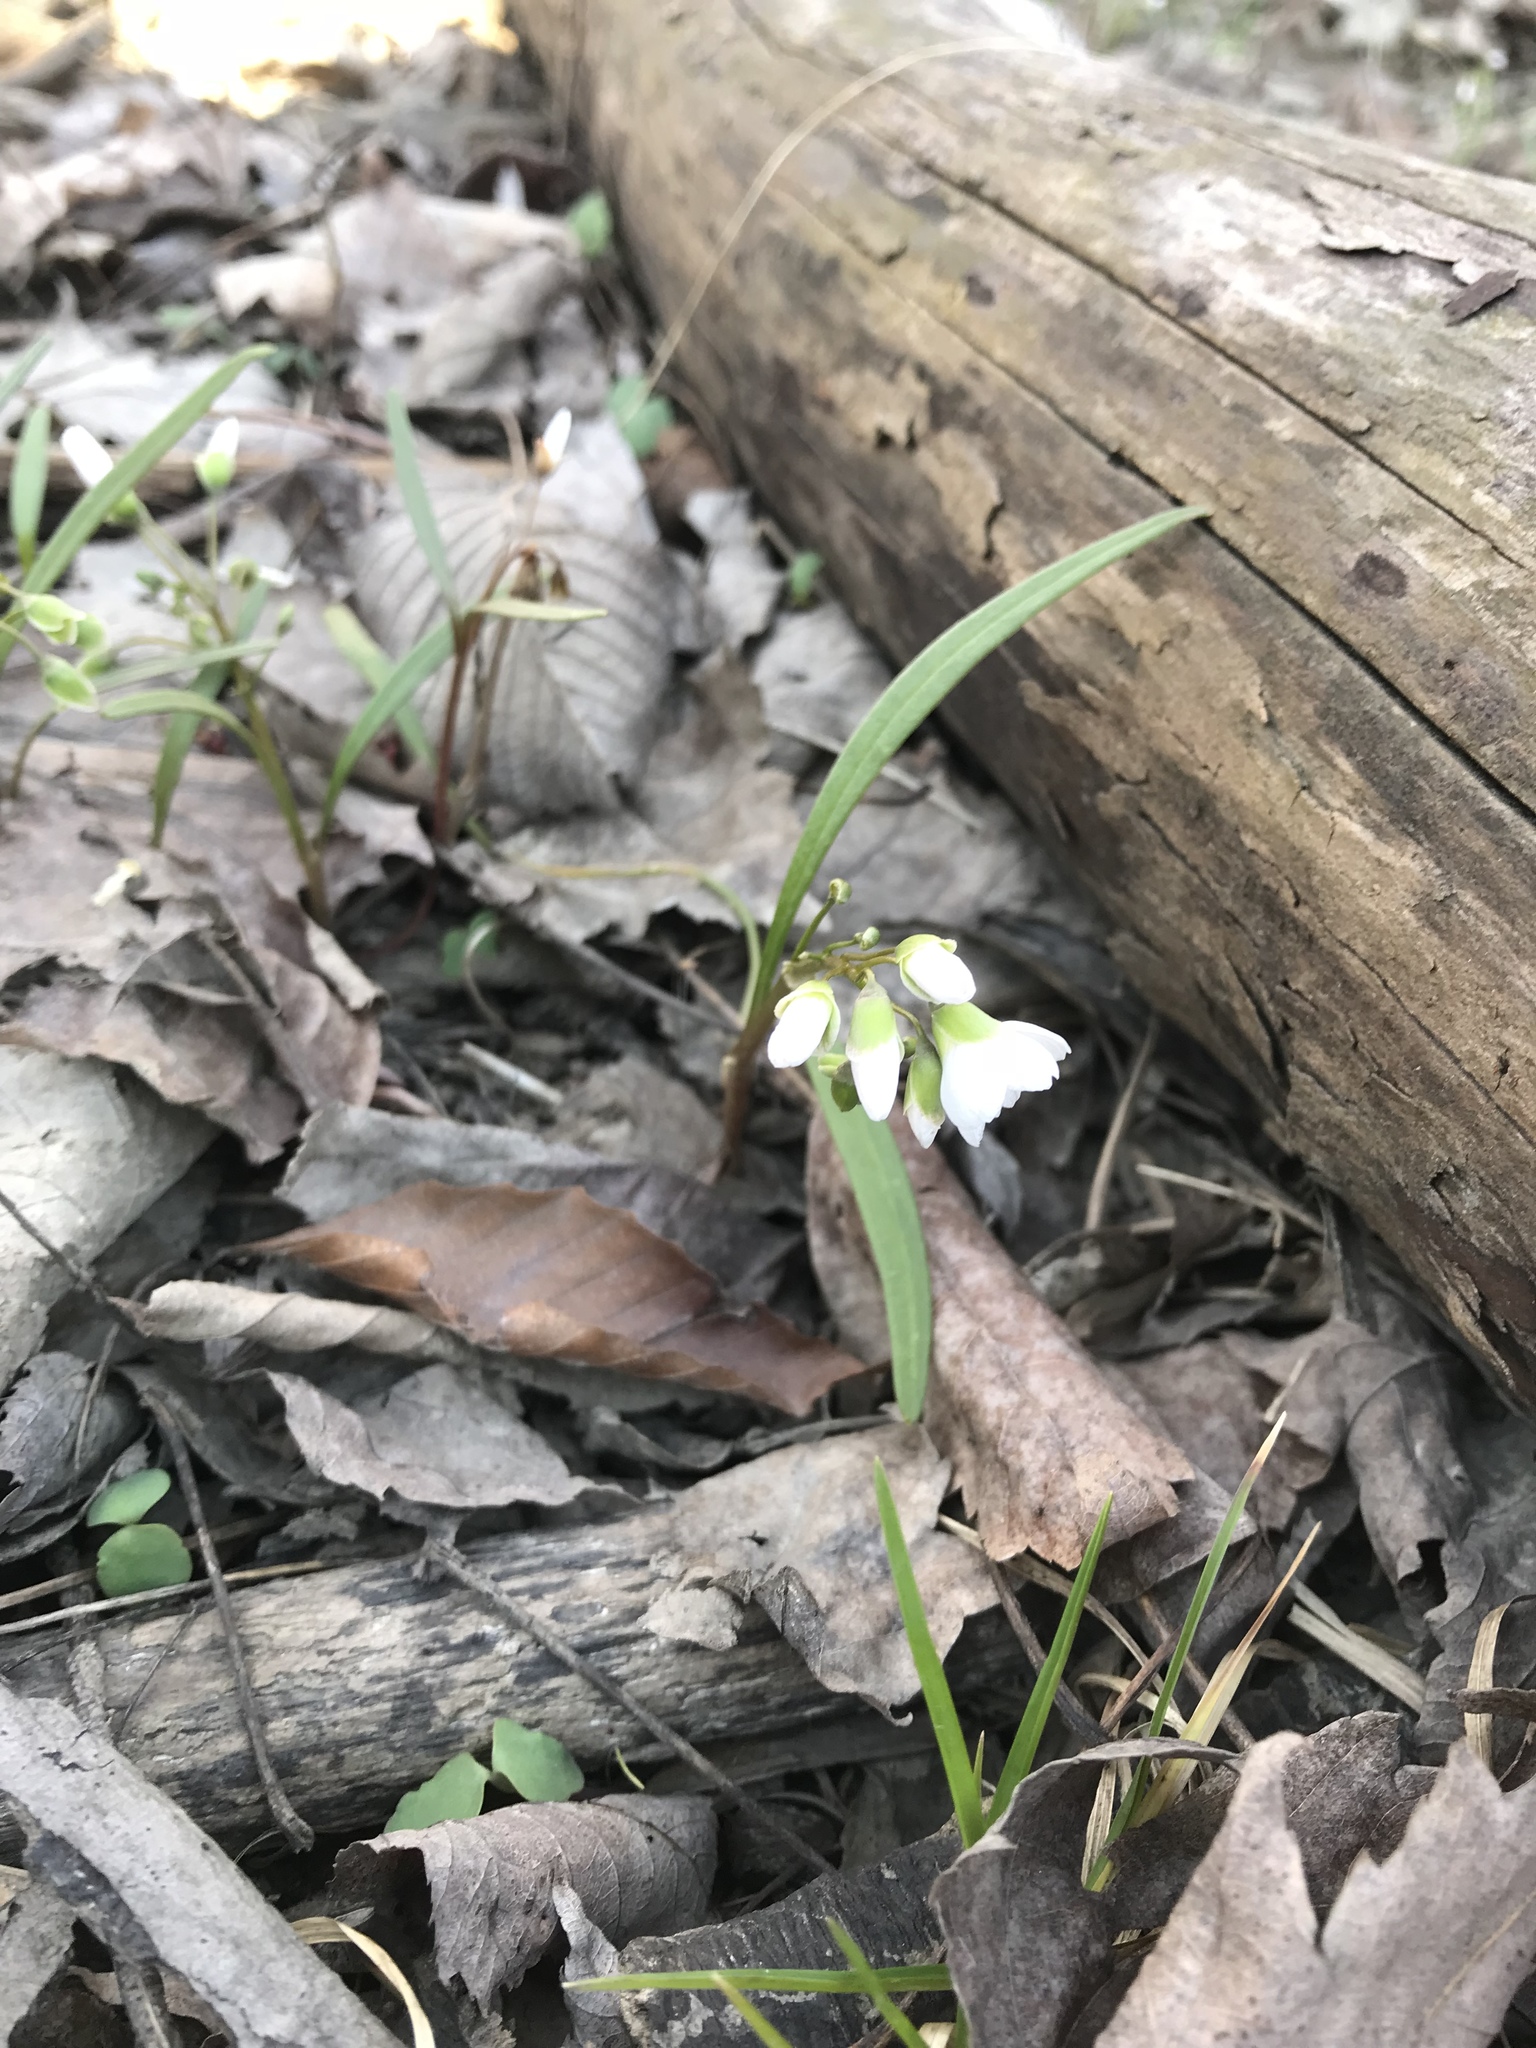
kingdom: Plantae
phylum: Tracheophyta
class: Magnoliopsida
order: Caryophyllales
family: Montiaceae
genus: Claytonia
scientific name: Claytonia virginica
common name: Virginia springbeauty
